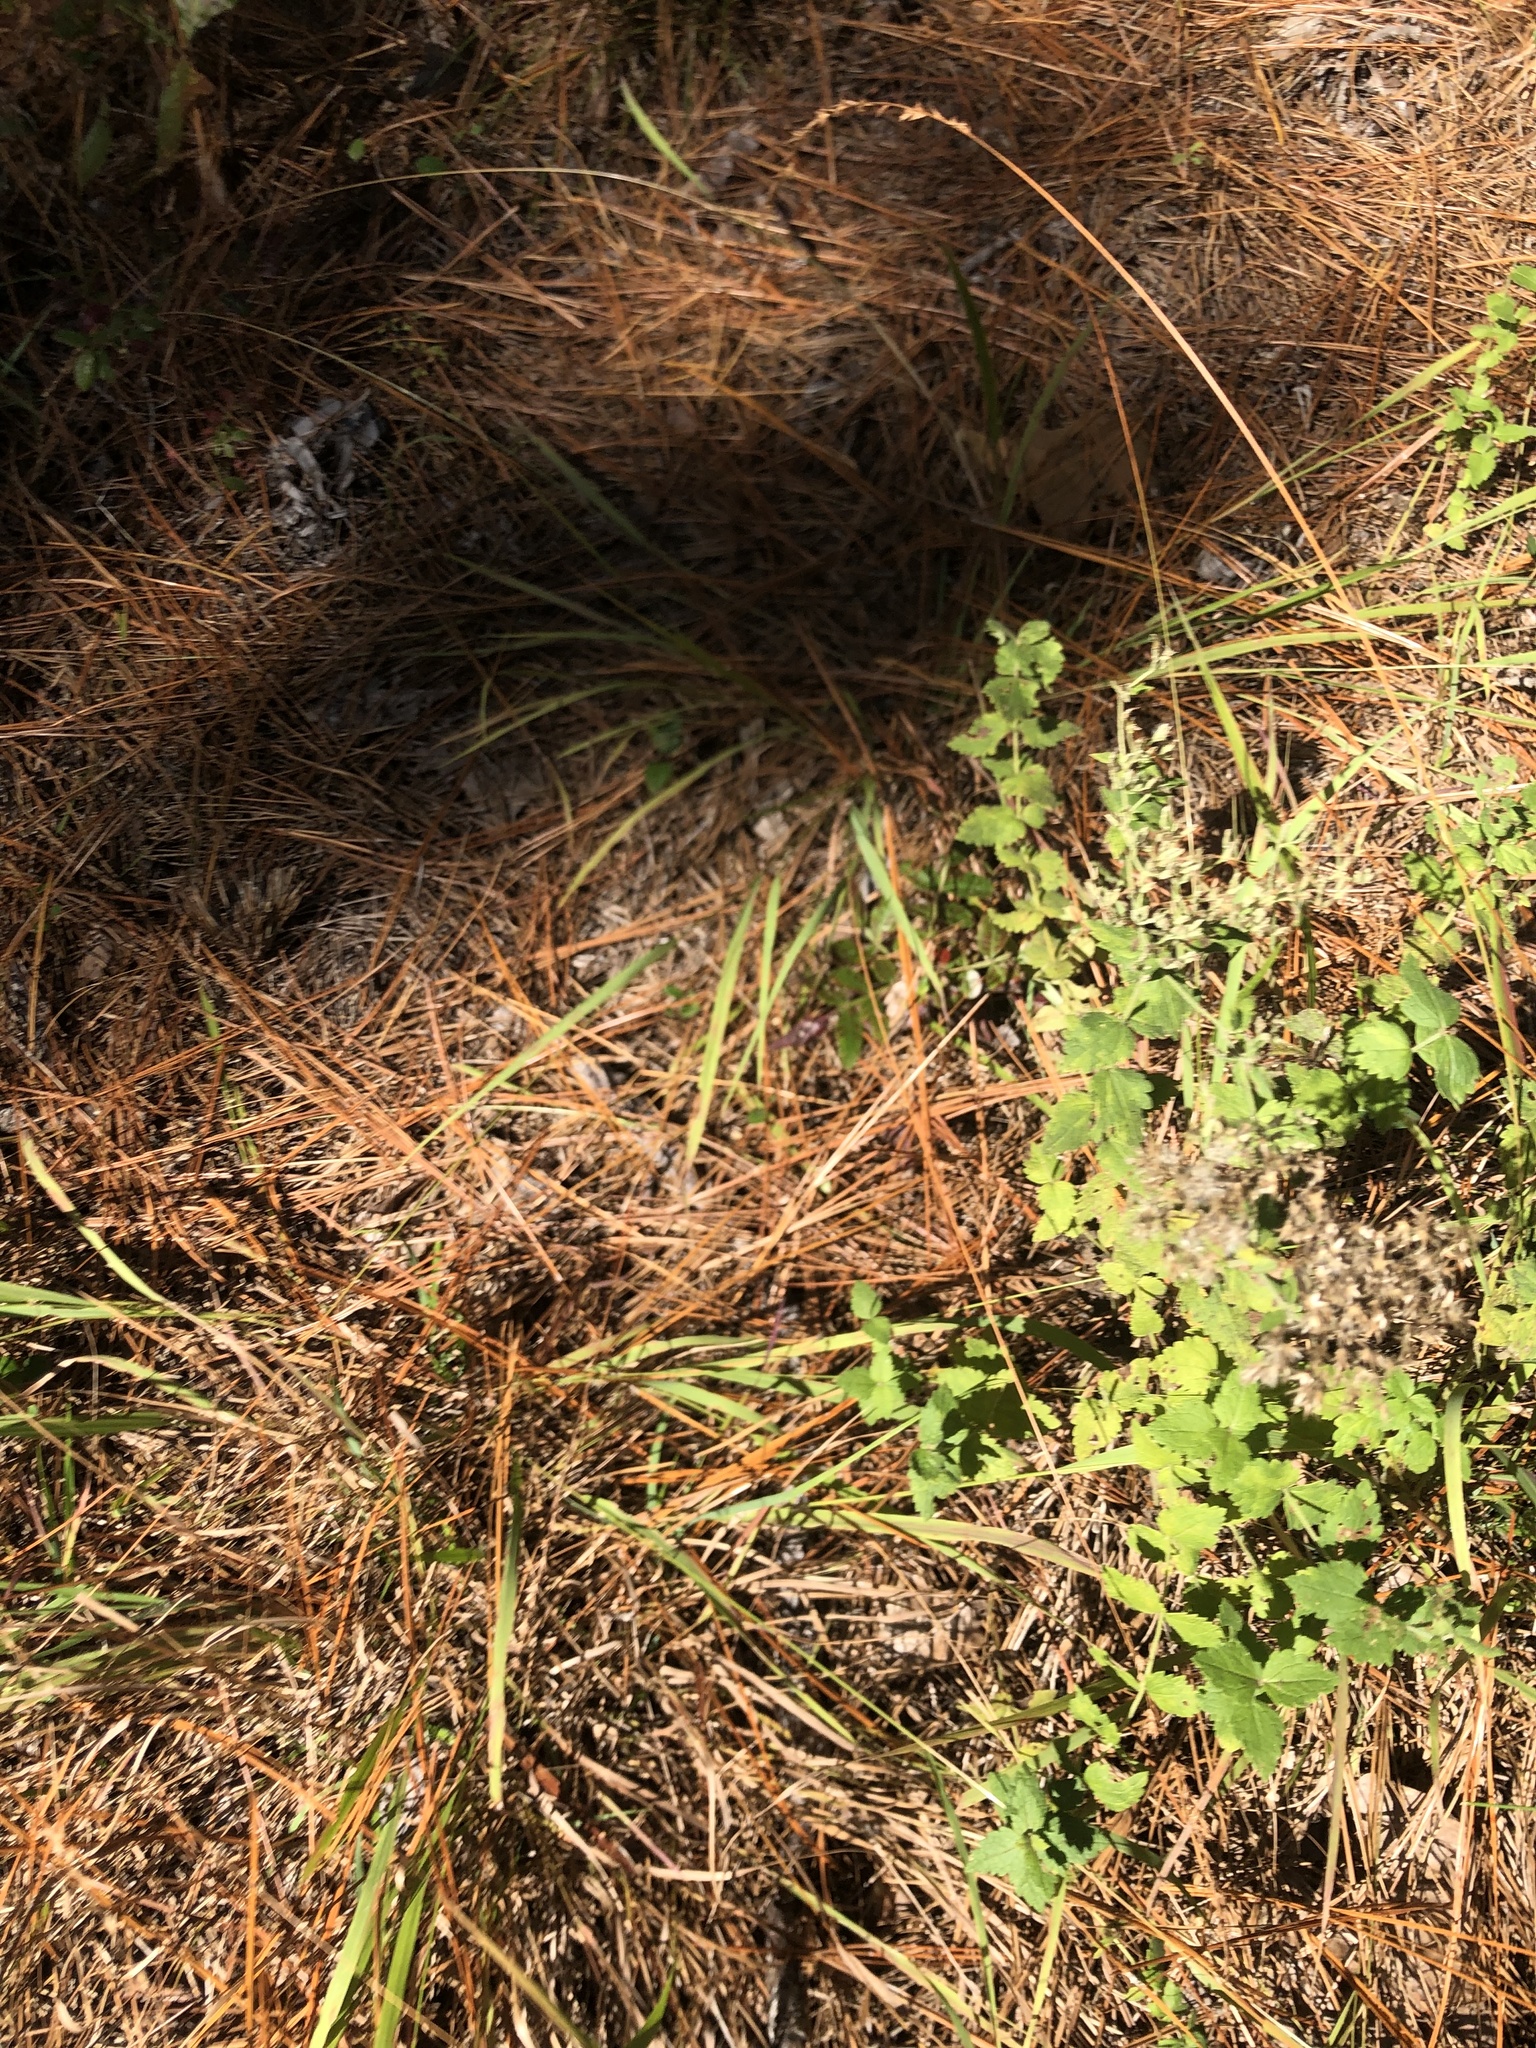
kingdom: Plantae
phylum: Tracheophyta
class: Magnoliopsida
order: Asterales
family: Asteraceae
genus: Eupatorium
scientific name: Eupatorium rotundifolium
